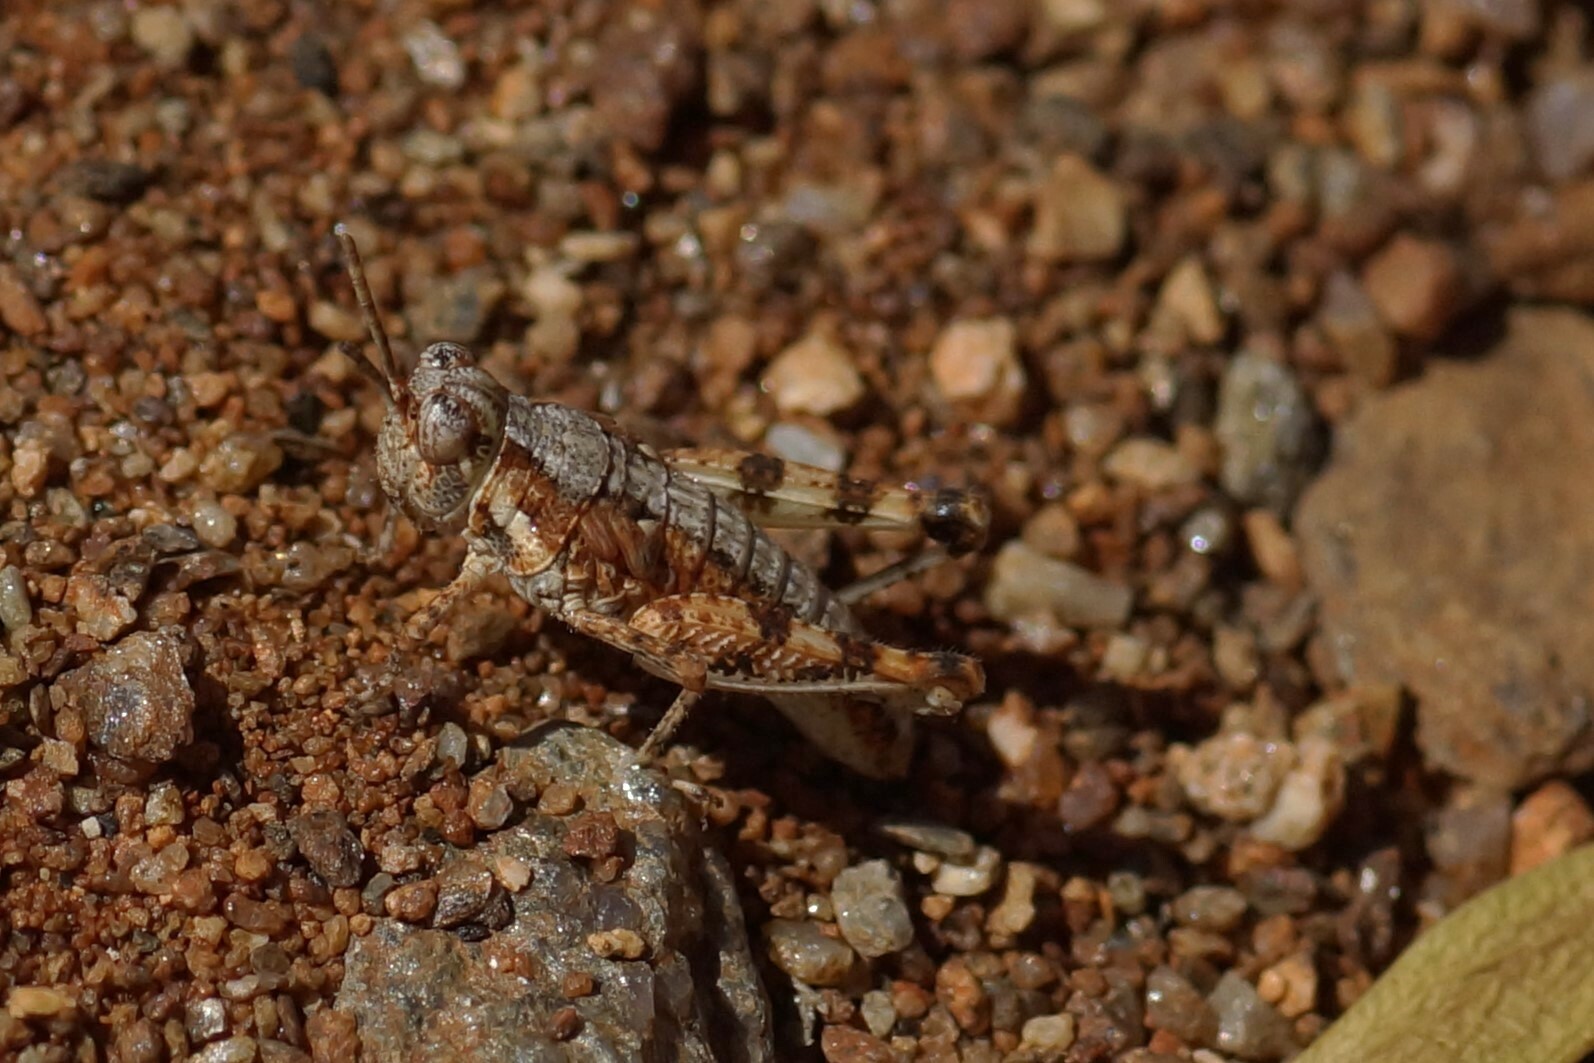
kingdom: Animalia
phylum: Arthropoda
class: Insecta
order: Orthoptera
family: Acrididae
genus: Urnisa
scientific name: Urnisa guttulosa
